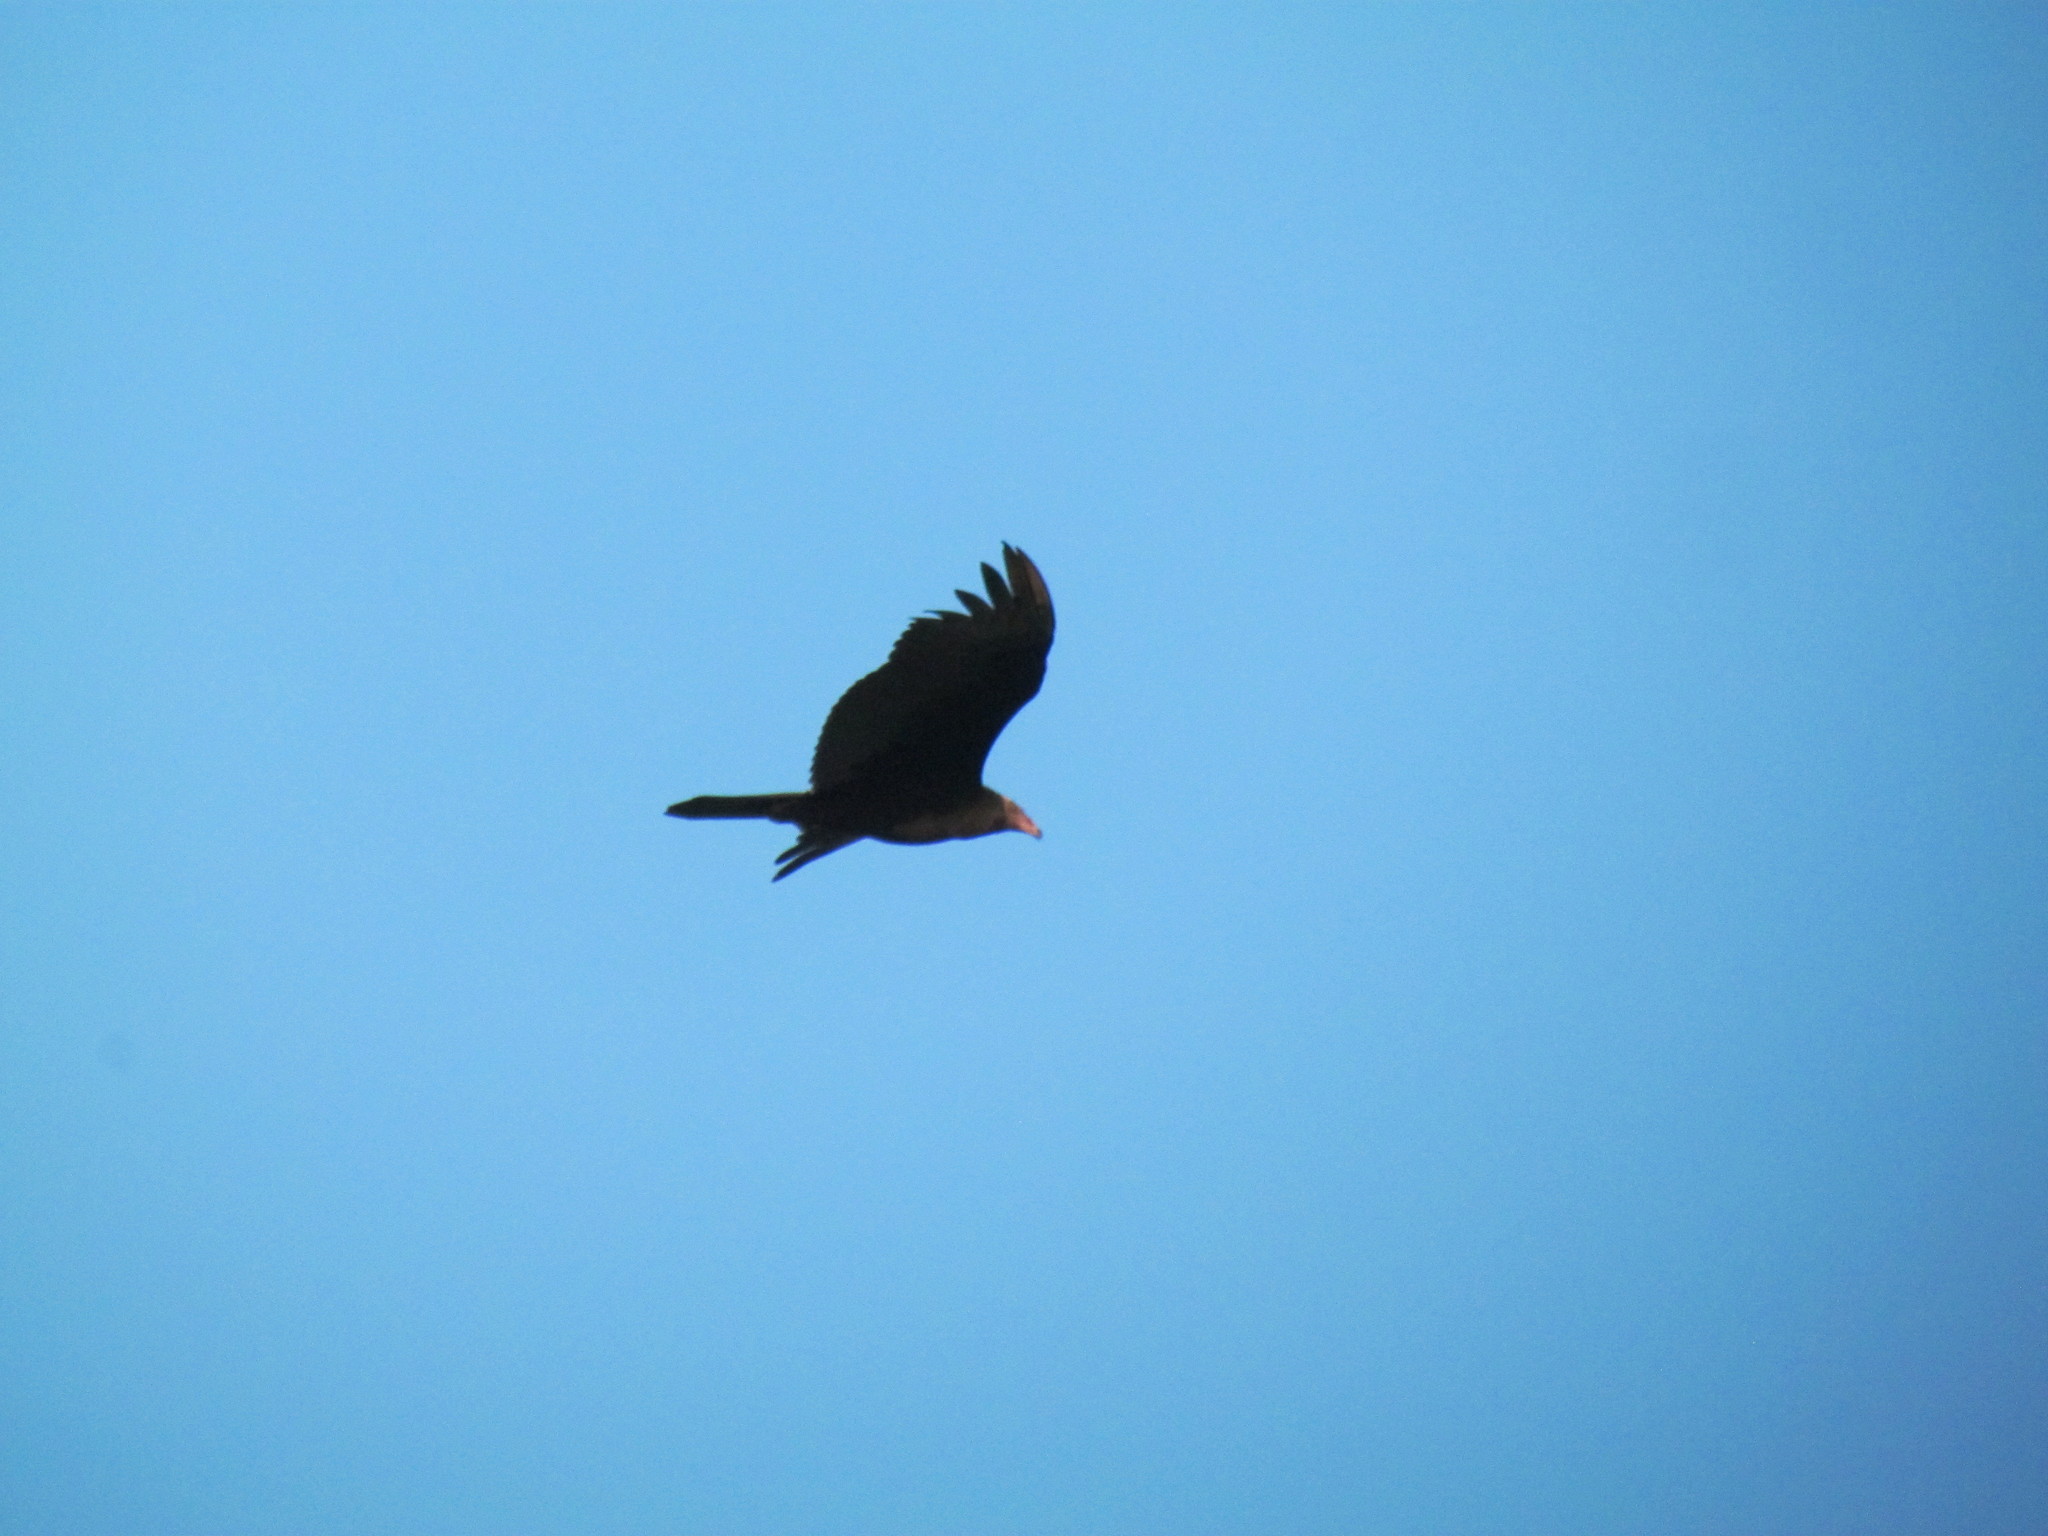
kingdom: Animalia
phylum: Chordata
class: Aves
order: Accipitriformes
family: Cathartidae
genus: Cathartes
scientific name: Cathartes aura
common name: Turkey vulture
